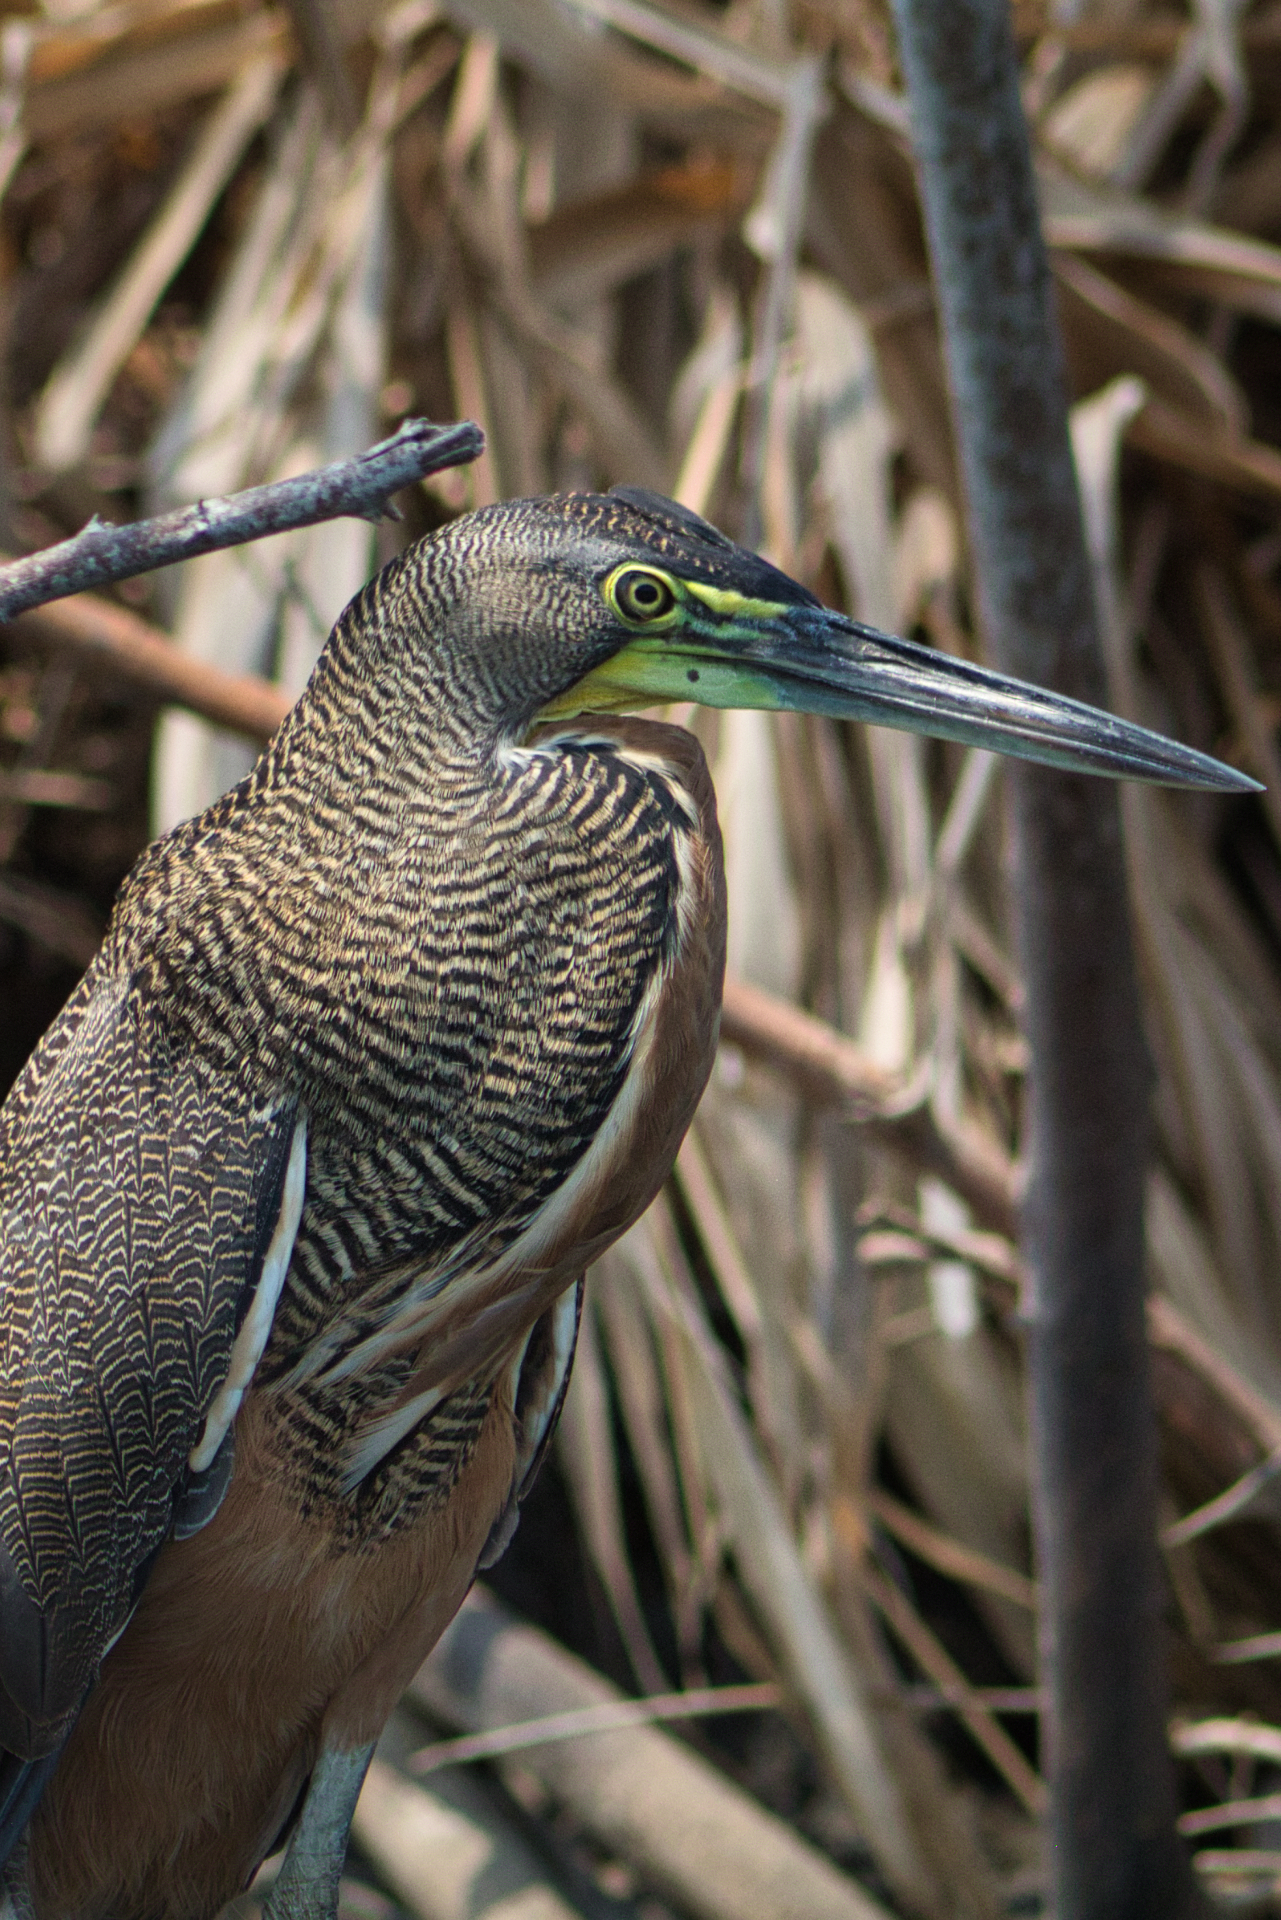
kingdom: Animalia
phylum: Chordata
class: Aves
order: Pelecaniformes
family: Ardeidae
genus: Tigrisoma
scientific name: Tigrisoma mexicanum
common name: Bare-throated tiger-heron
